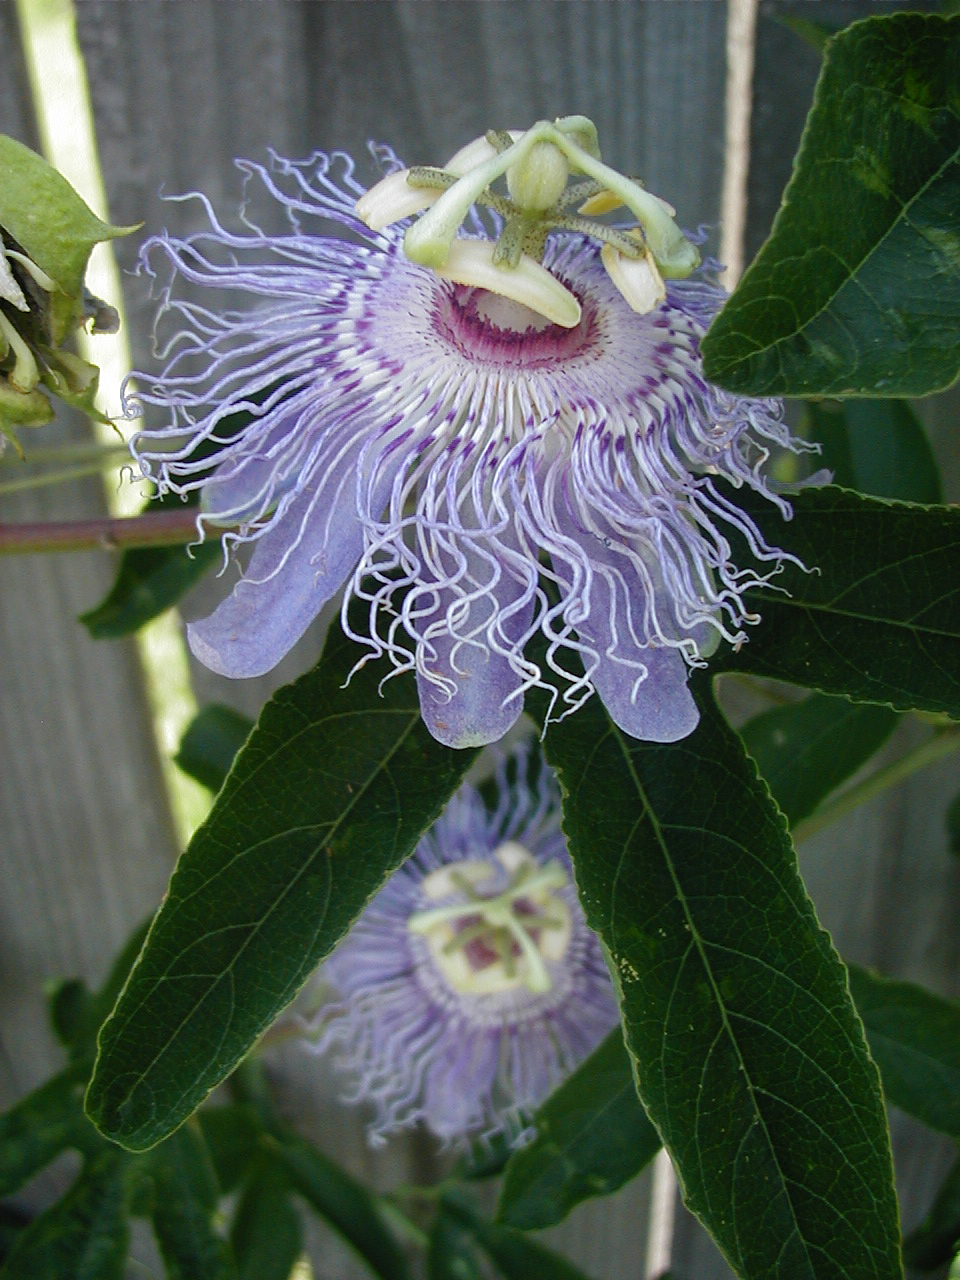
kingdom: Plantae
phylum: Tracheophyta
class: Magnoliopsida
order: Malpighiales
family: Passifloraceae
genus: Passiflora
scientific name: Passiflora incarnata
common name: Apricot-vine
